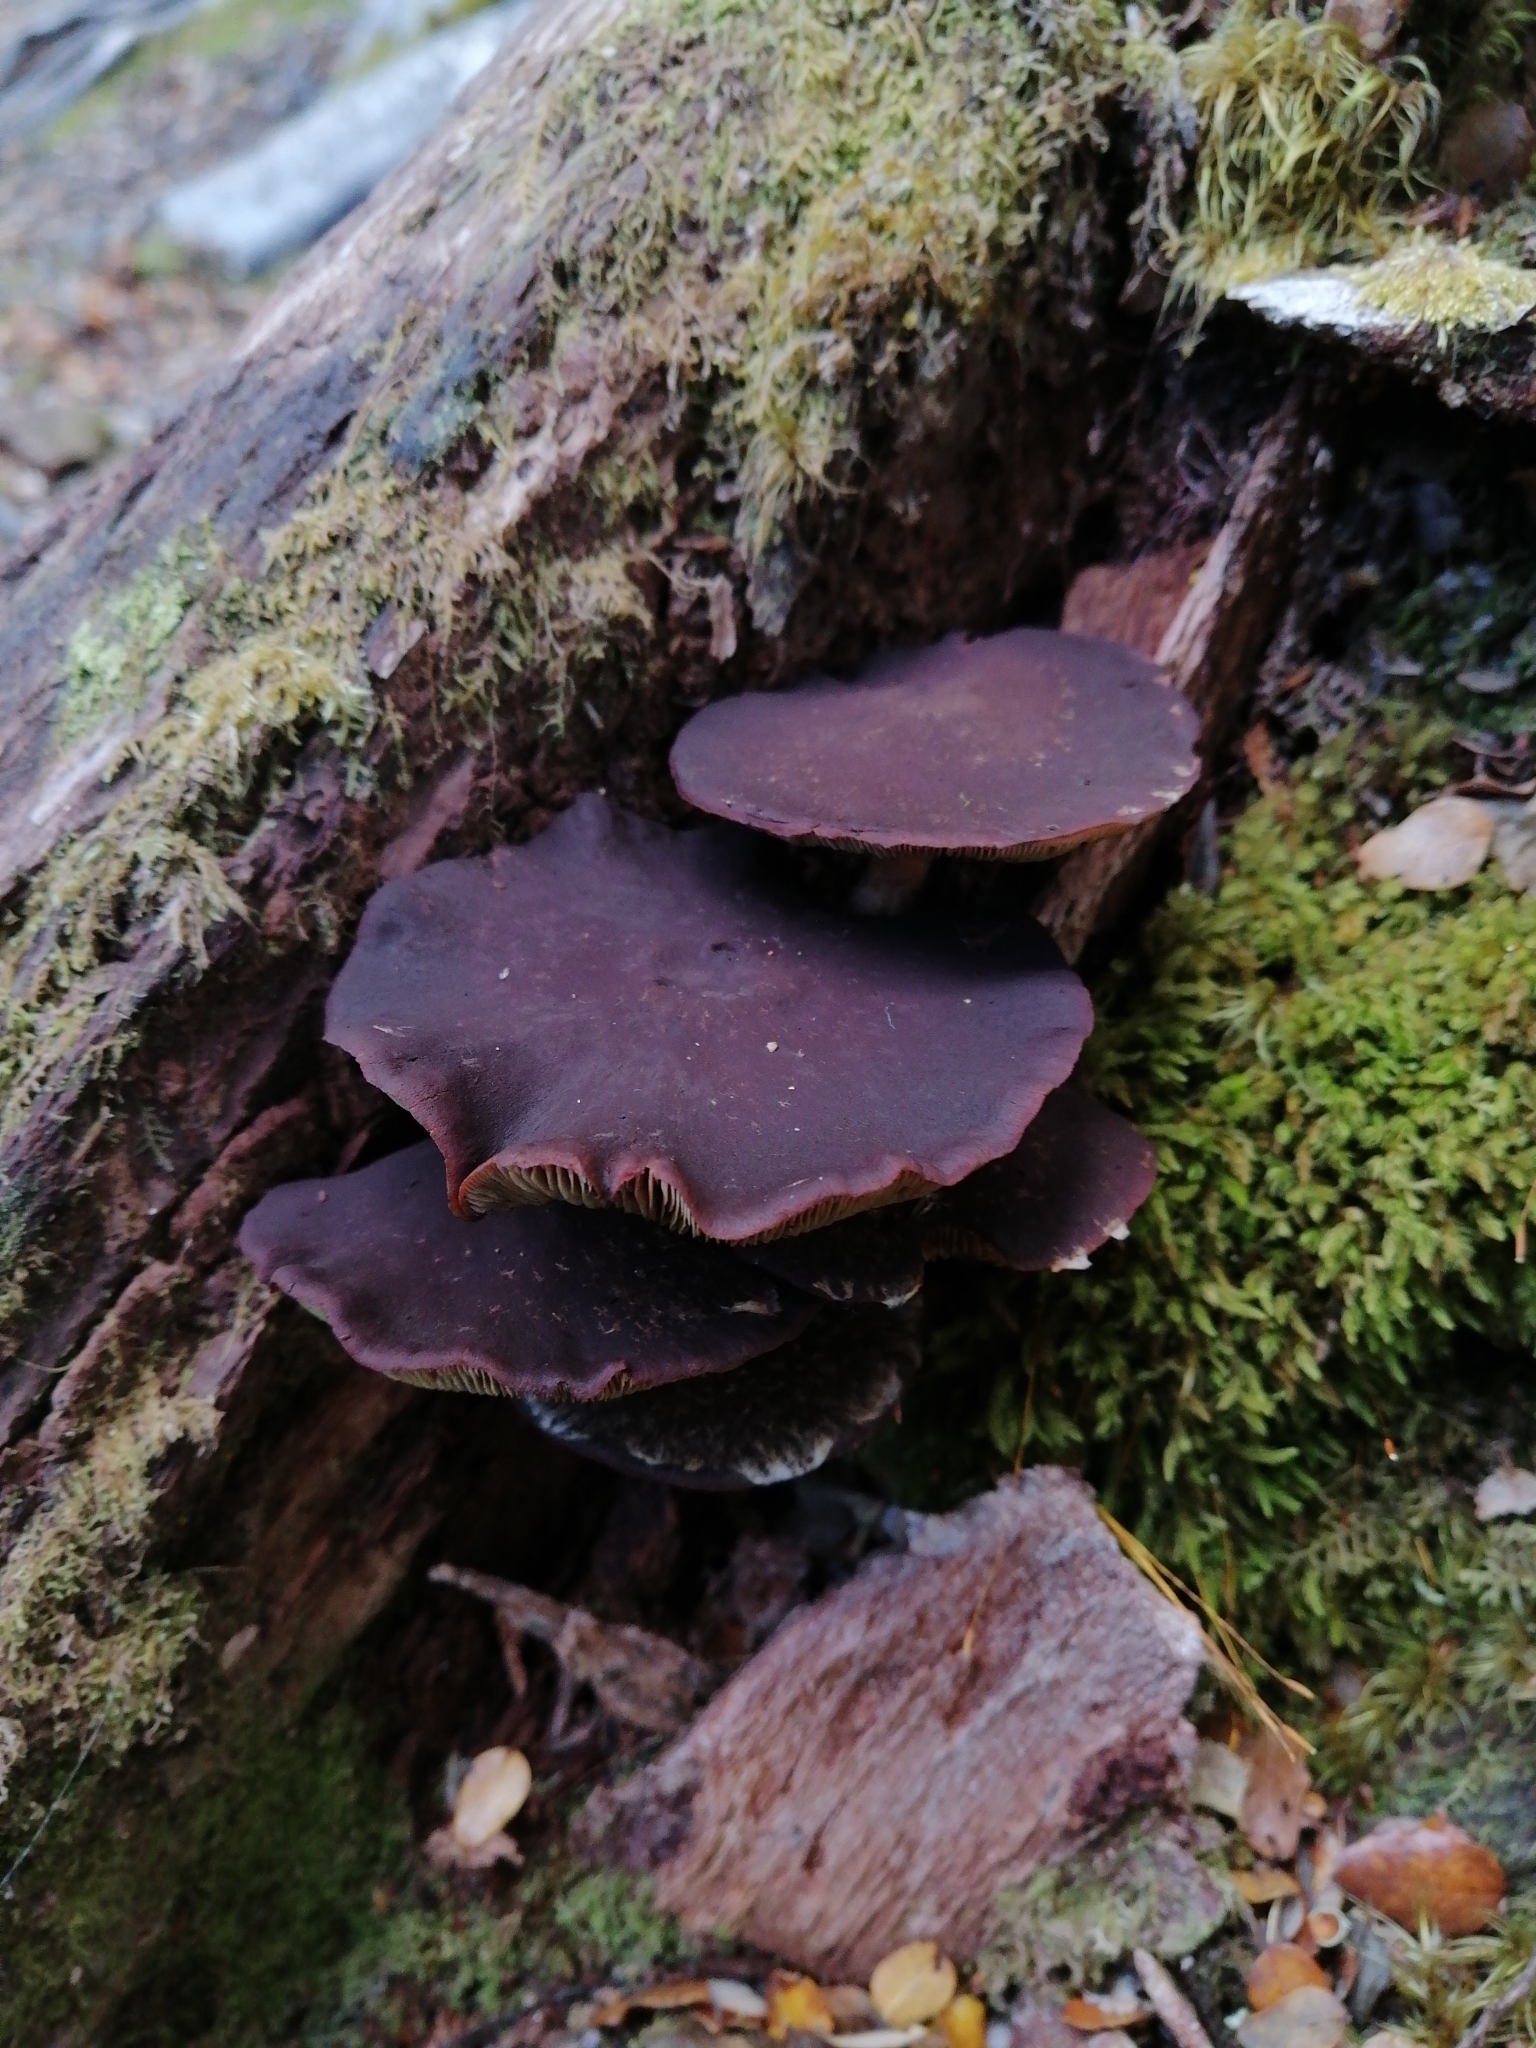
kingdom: Fungi
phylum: Basidiomycota
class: Agaricomycetes
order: Agaricales
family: Strophariaceae
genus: Hypholoma
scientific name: Hypholoma brunneum
